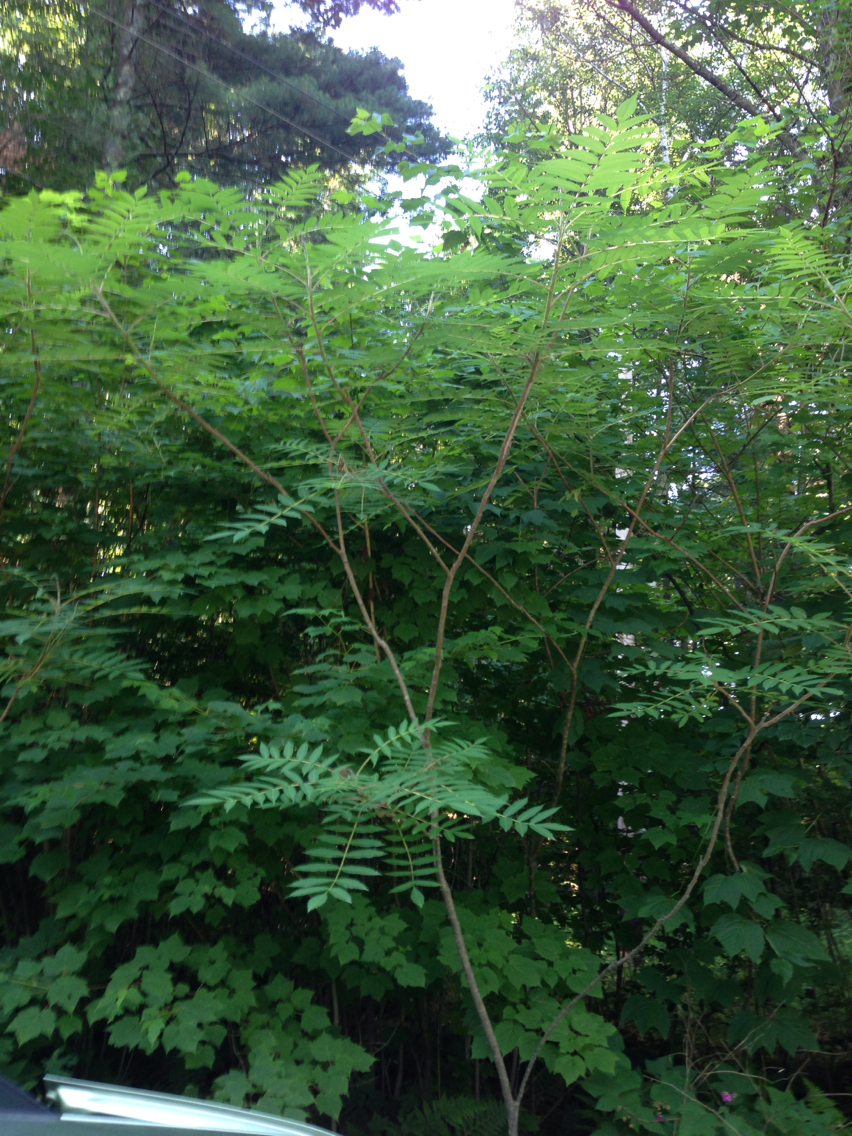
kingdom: Plantae
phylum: Tracheophyta
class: Magnoliopsida
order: Sapindales
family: Anacardiaceae
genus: Rhus
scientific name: Rhus typhina
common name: Staghorn sumac
